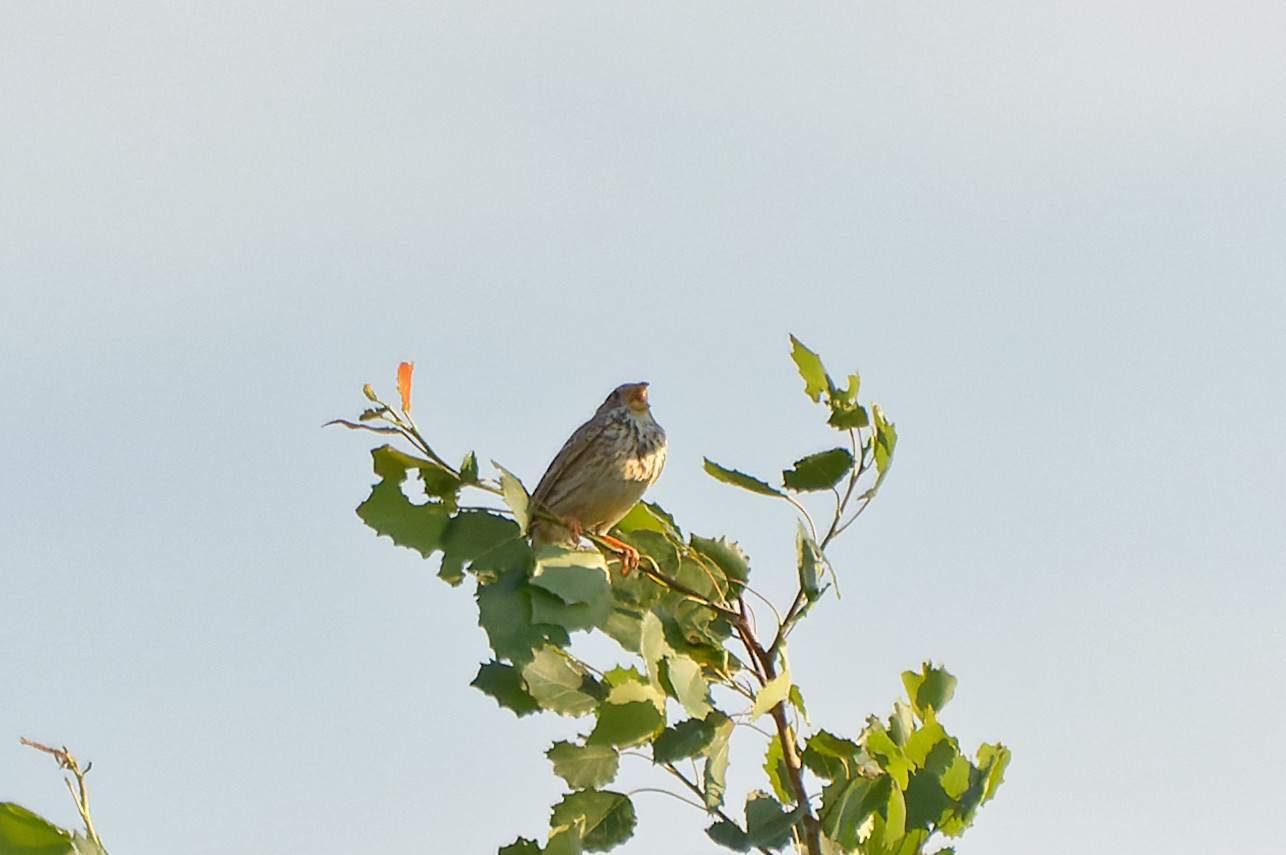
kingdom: Animalia
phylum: Chordata
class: Aves
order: Passeriformes
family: Emberizidae
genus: Emberiza
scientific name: Emberiza calandra
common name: Corn bunting
